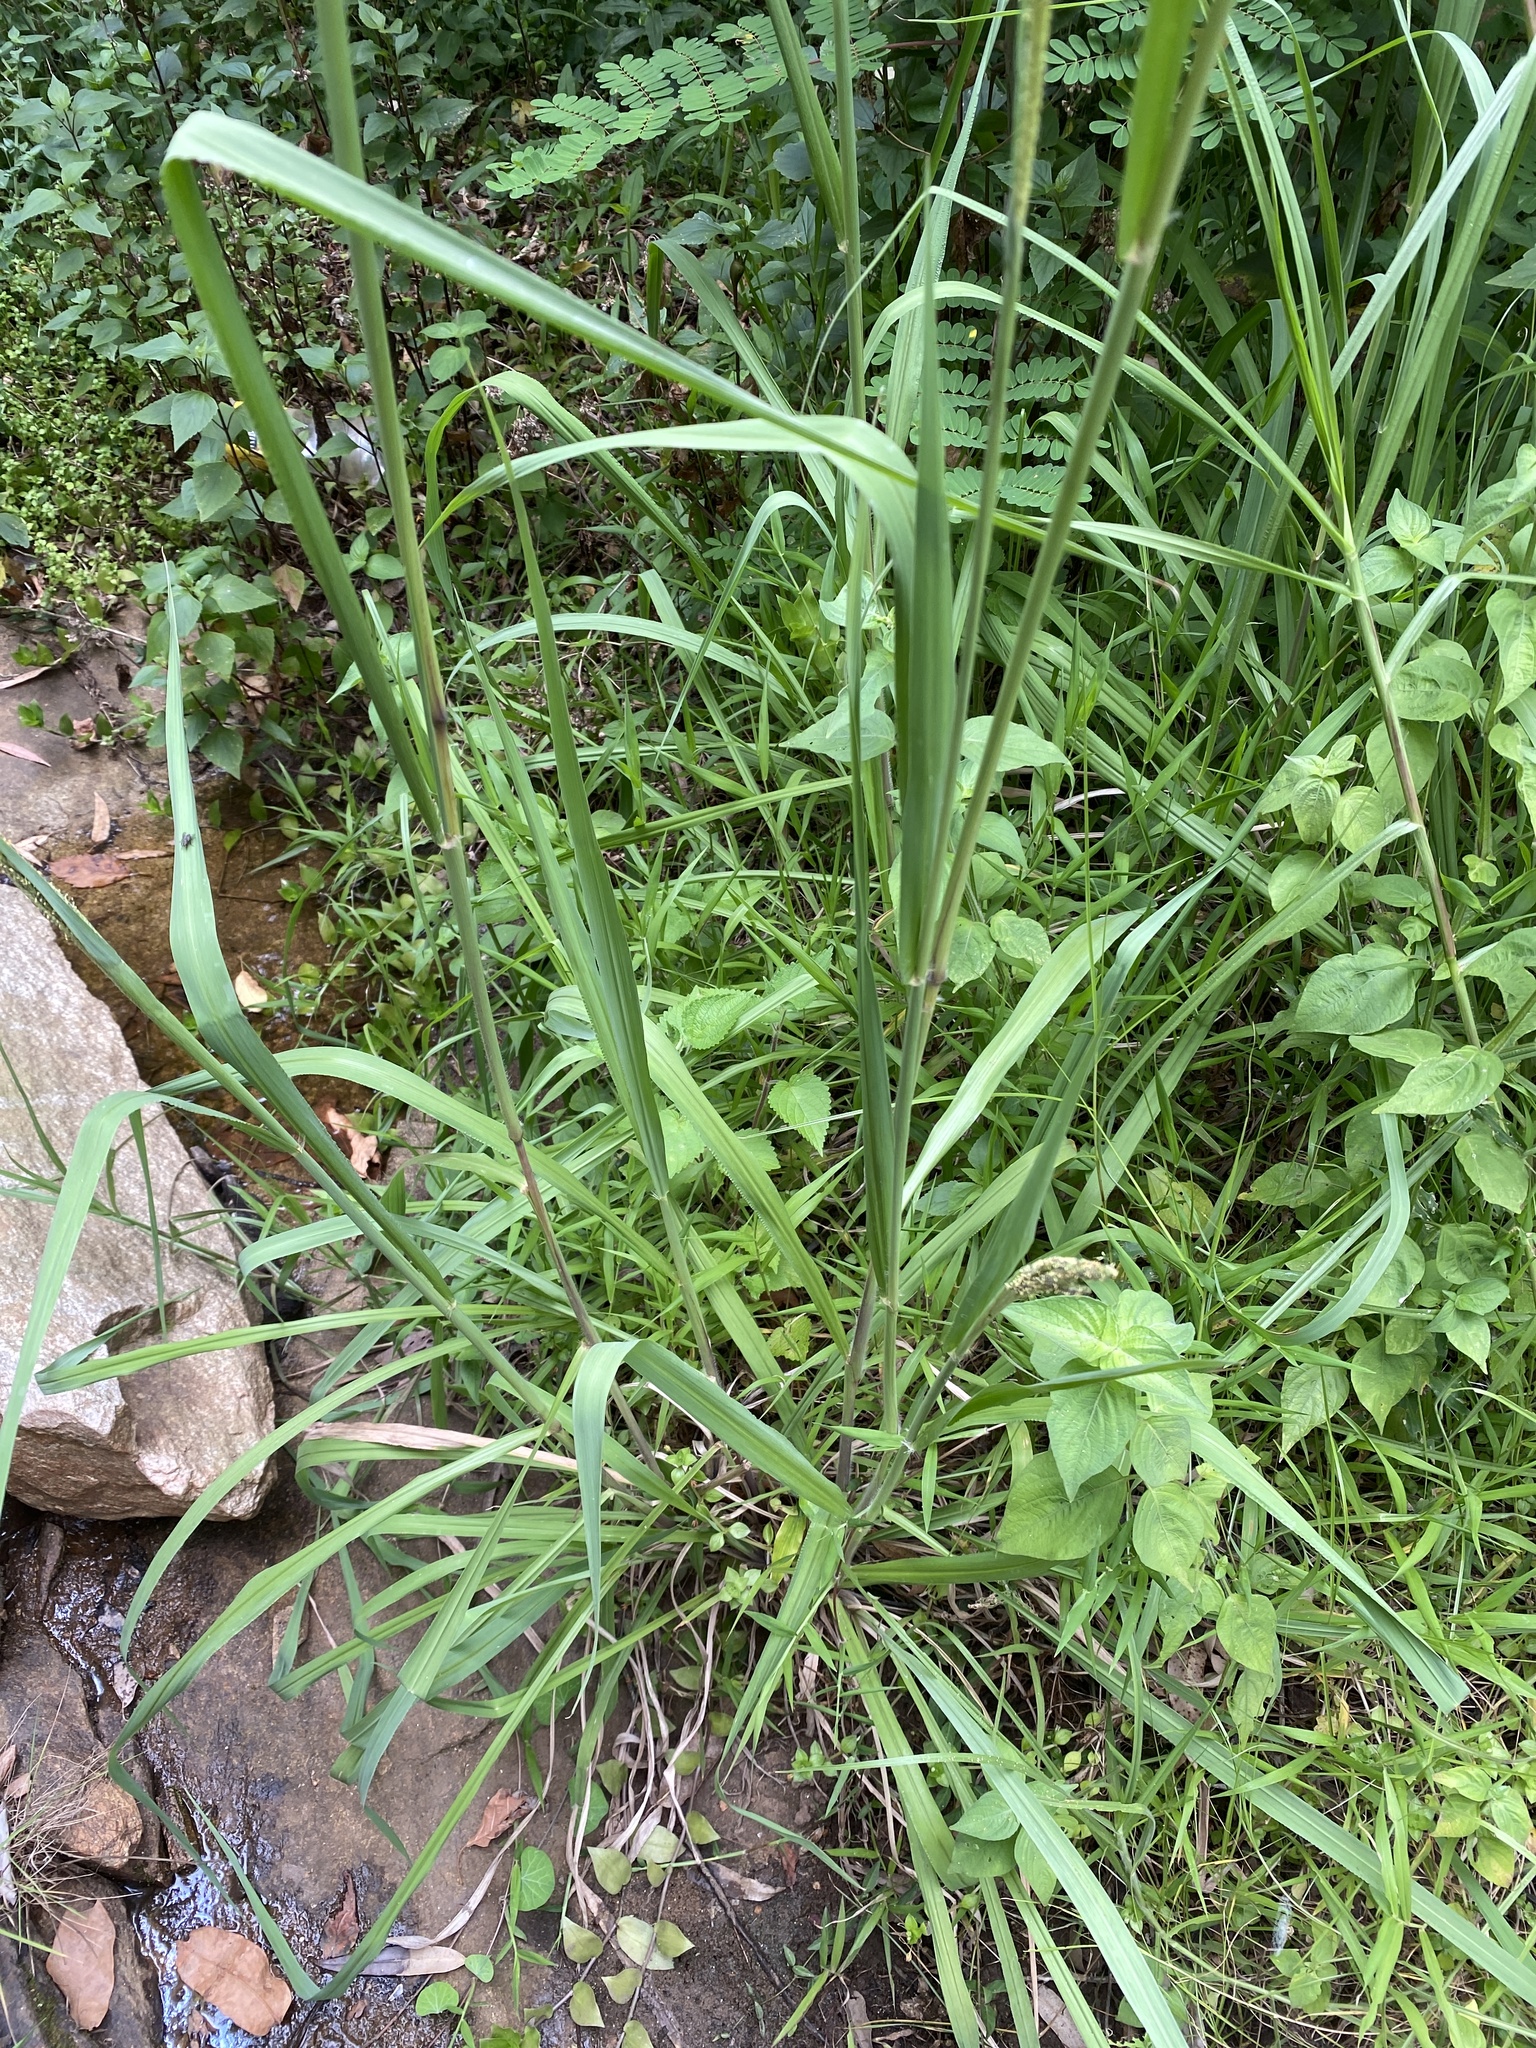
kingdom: Plantae
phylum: Tracheophyta
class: Liliopsida
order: Poales
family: Poaceae
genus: Paspalum
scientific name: Paspalum urvillei
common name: Vasey's grass
